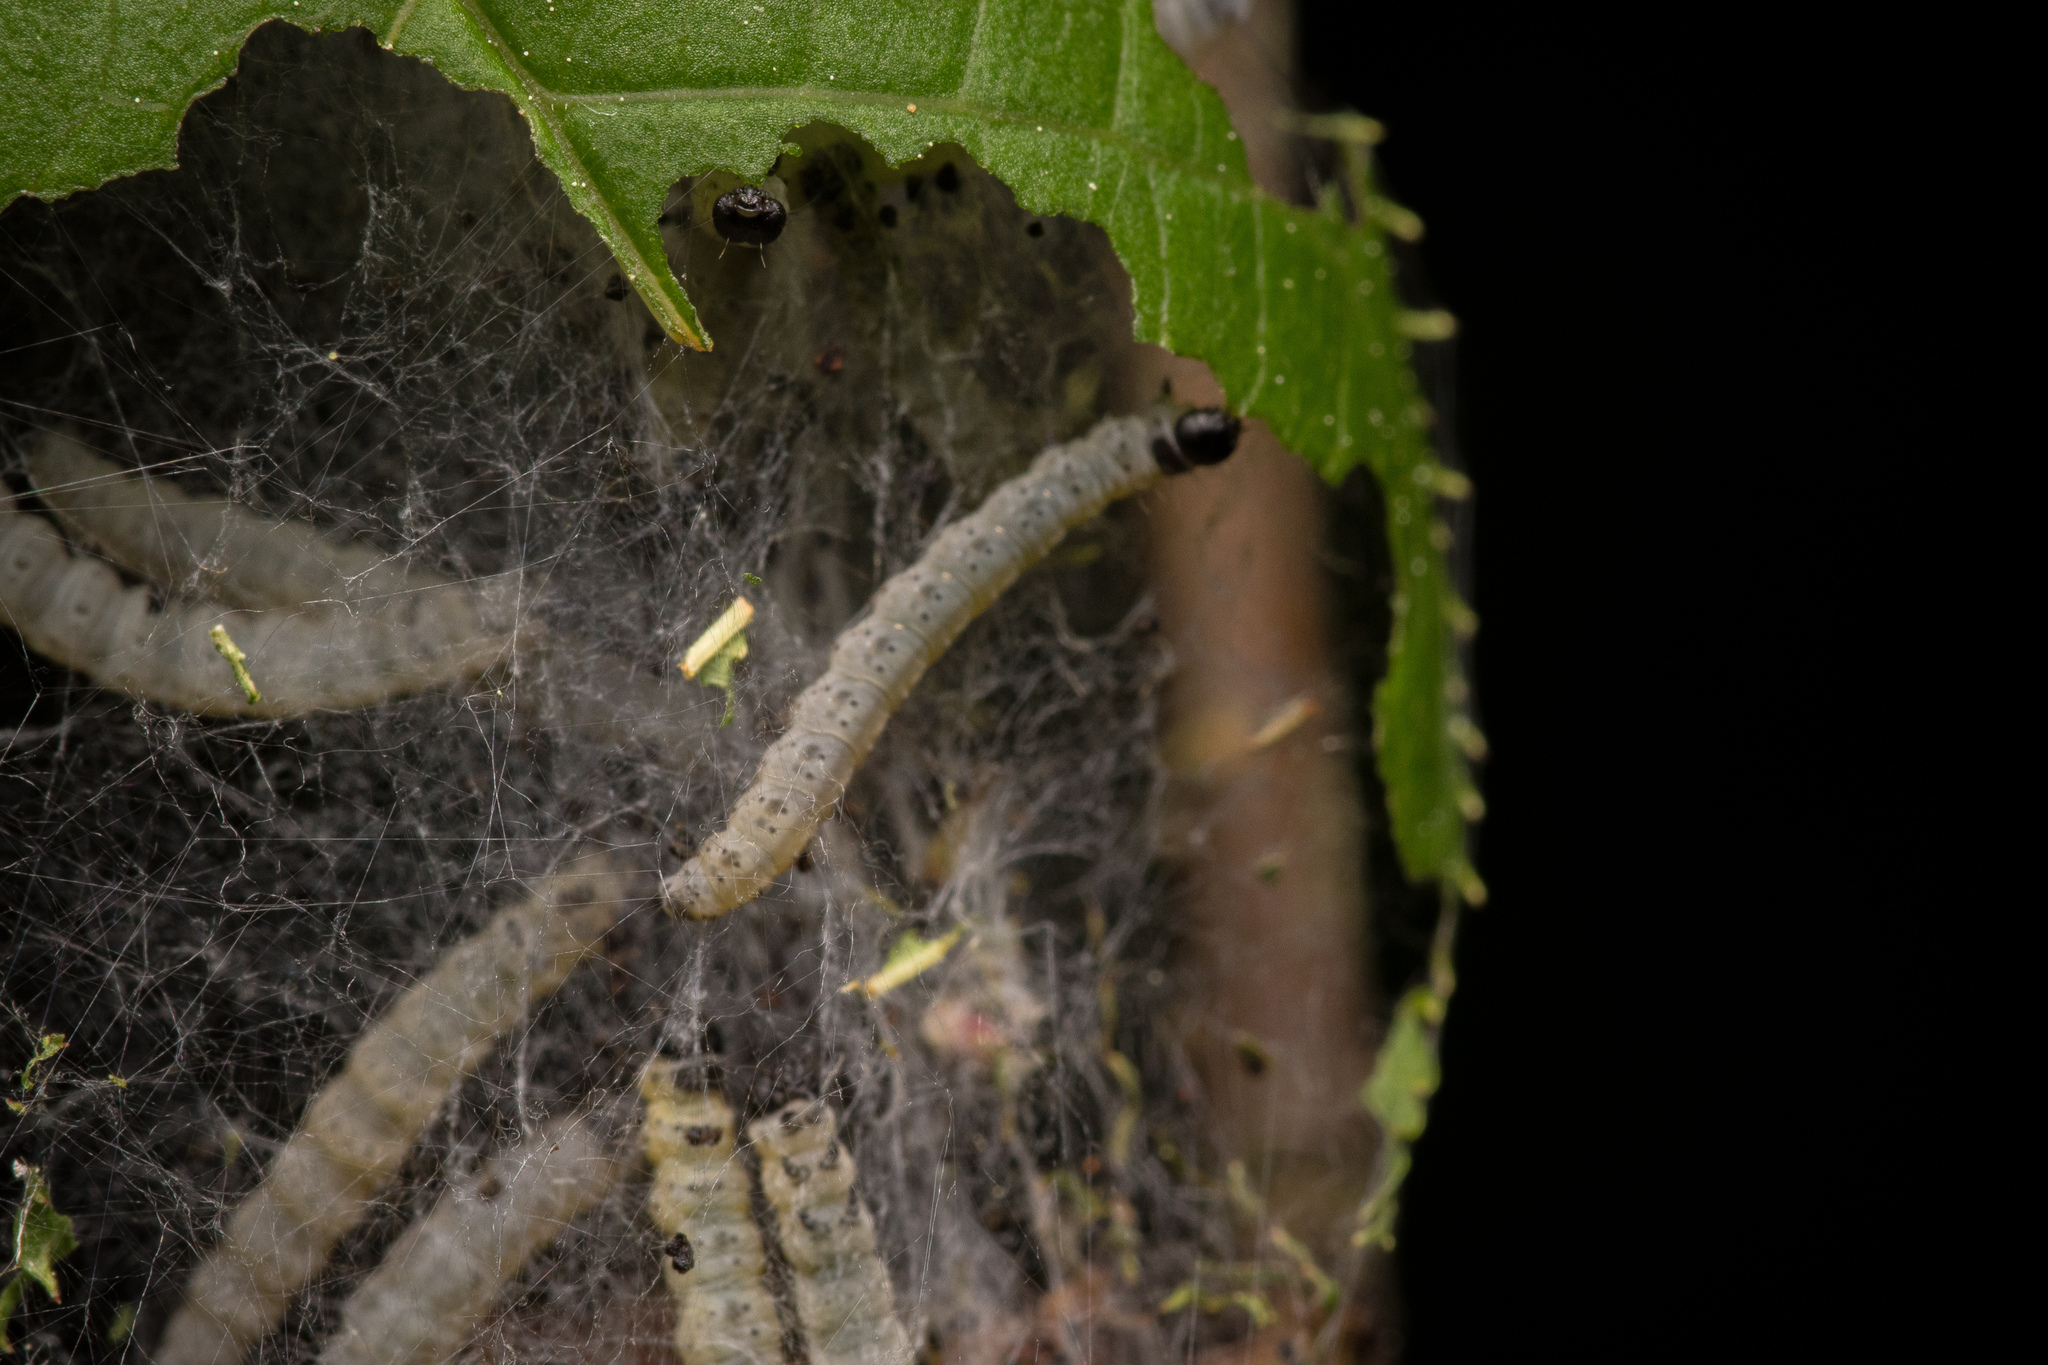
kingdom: Animalia
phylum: Arthropoda
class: Insecta
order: Lepidoptera
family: Yponomeutidae
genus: Yponomeuta
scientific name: Yponomeuta evonymella
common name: Bird-cherry ermine
